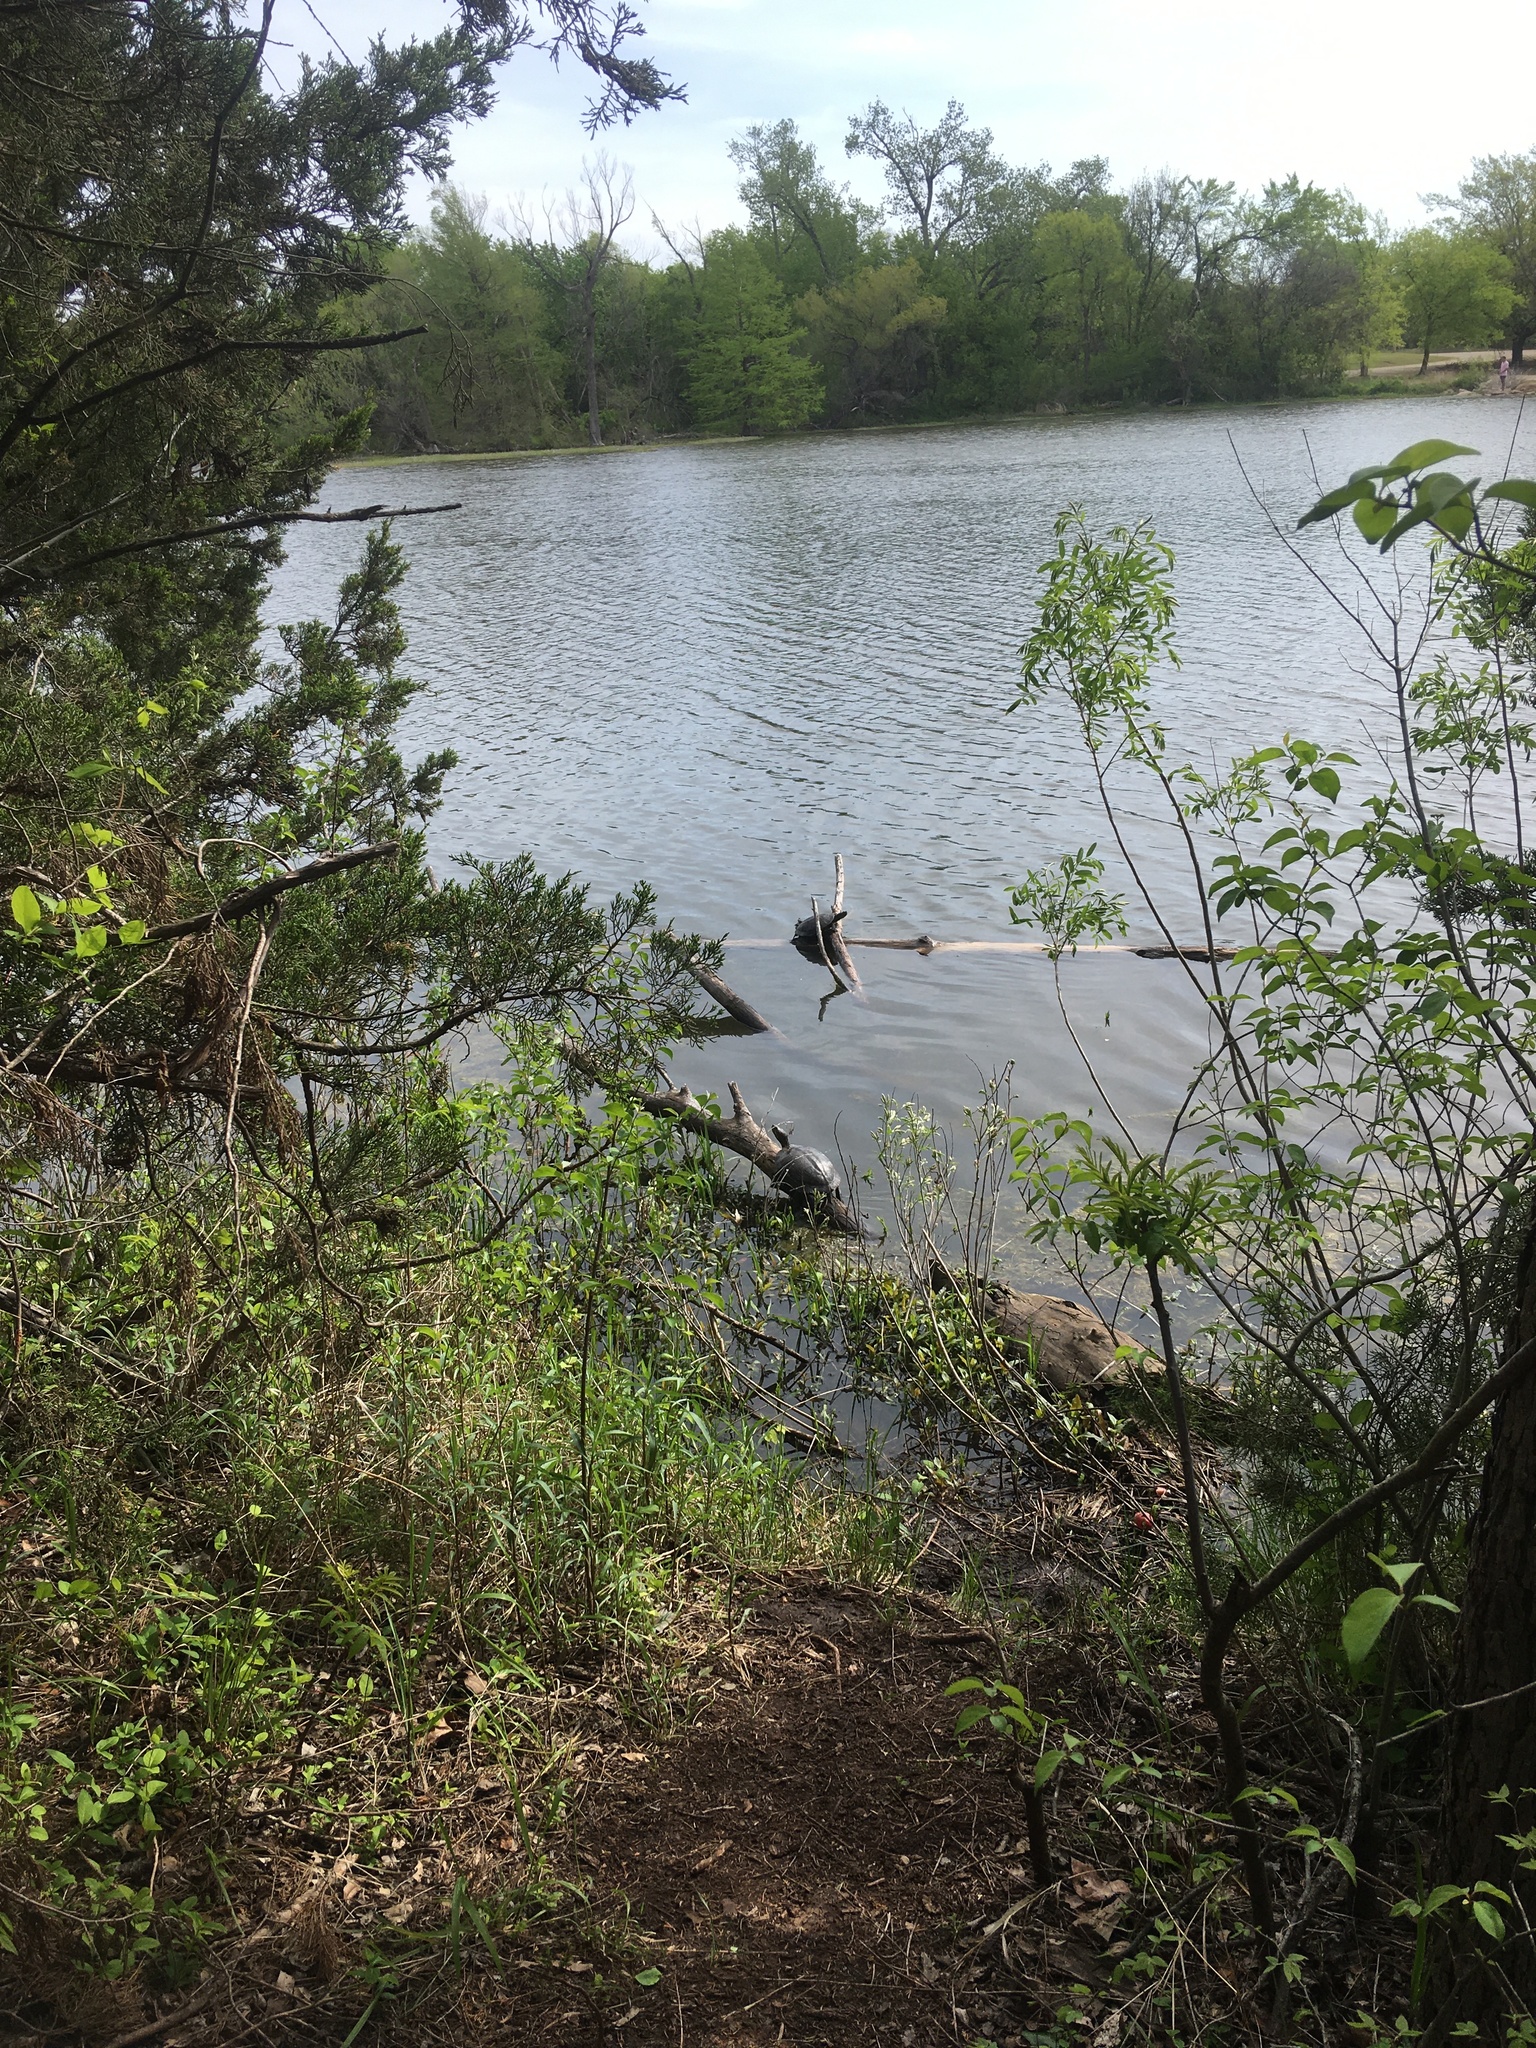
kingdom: Animalia
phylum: Chordata
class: Testudines
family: Emydidae
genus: Trachemys
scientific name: Trachemys scripta
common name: Slider
